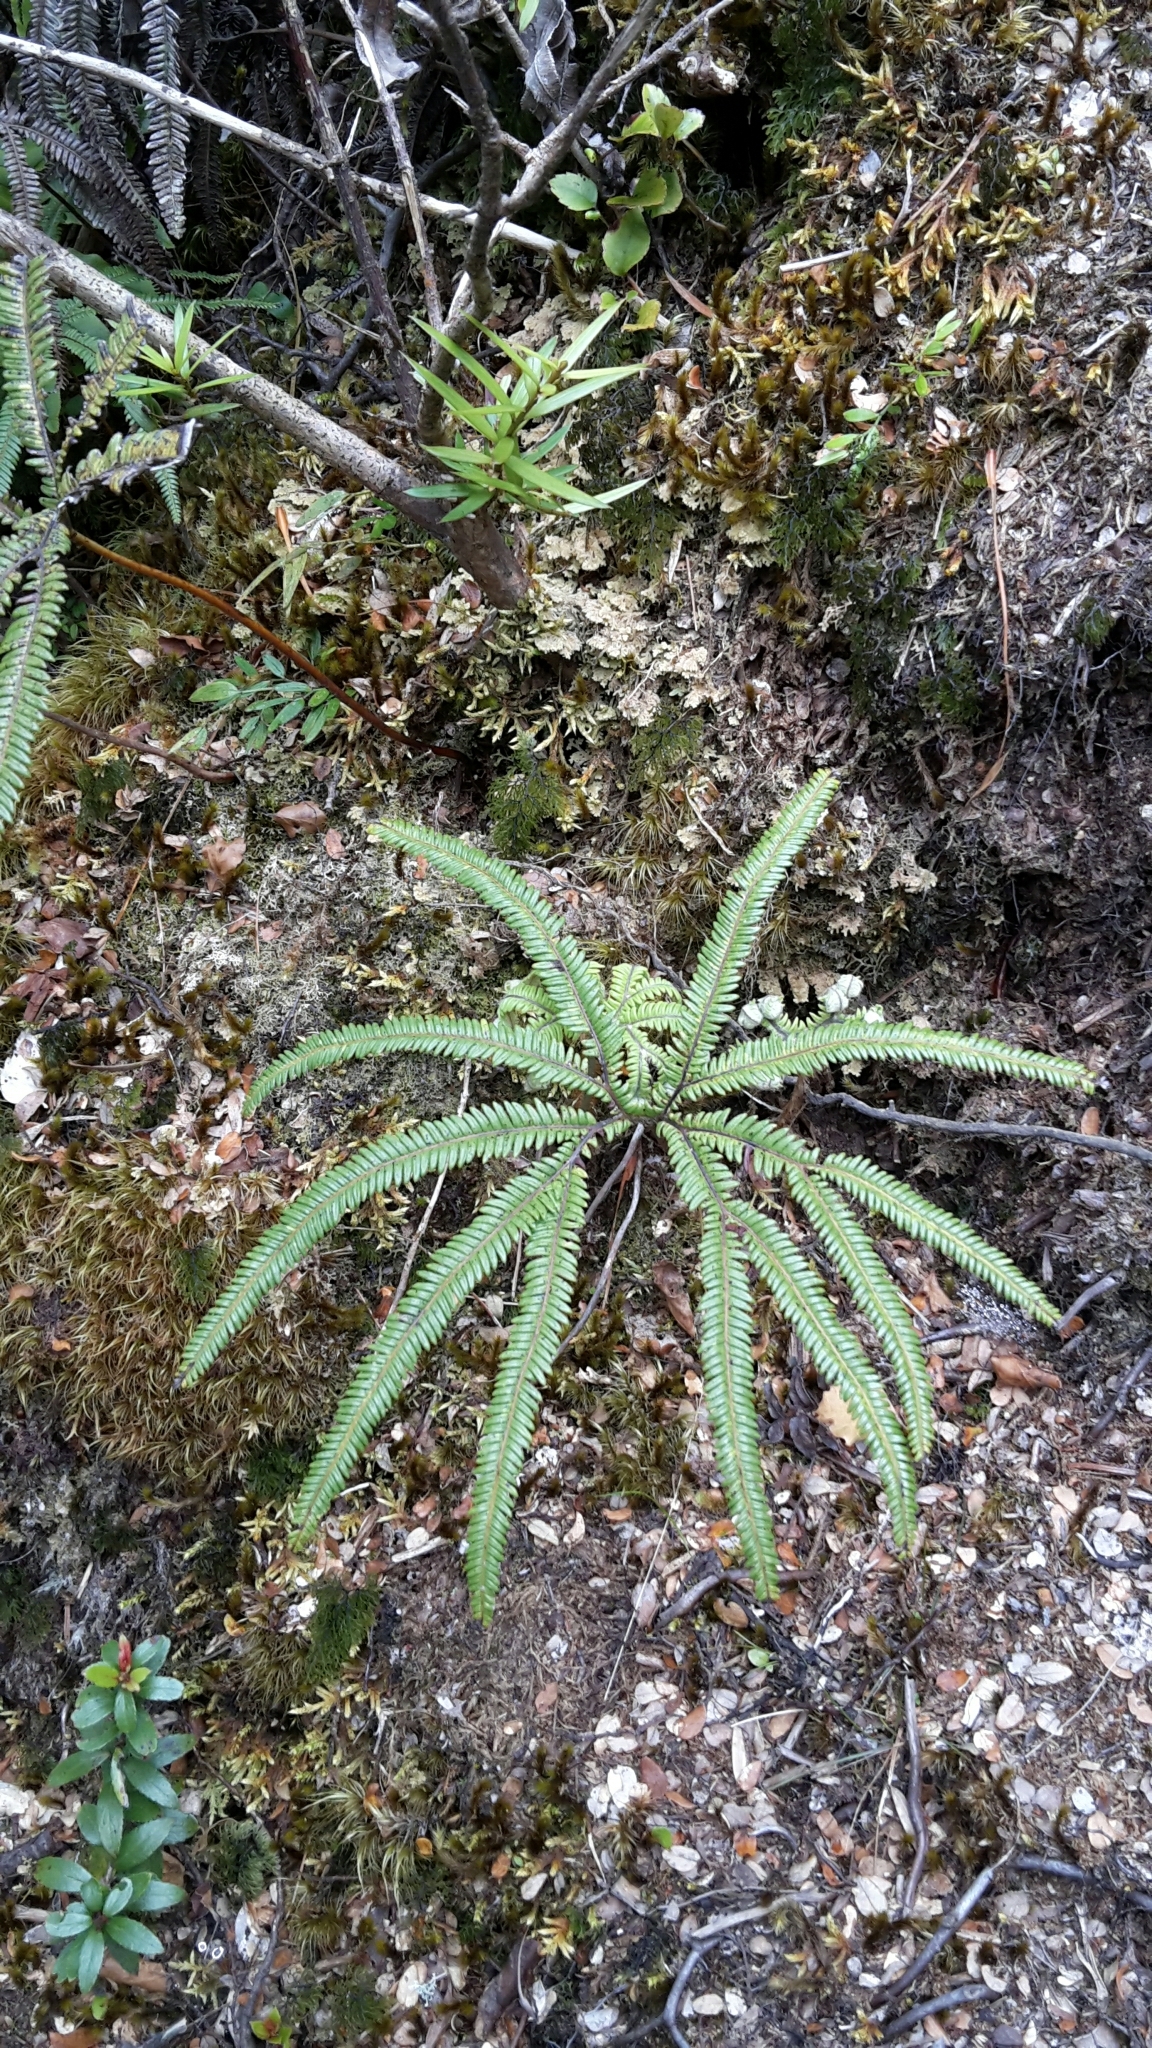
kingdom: Plantae
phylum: Tracheophyta
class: Polypodiopsida
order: Gleicheniales
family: Gleicheniaceae
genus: Sticherus
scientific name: Sticherus cunninghamii
